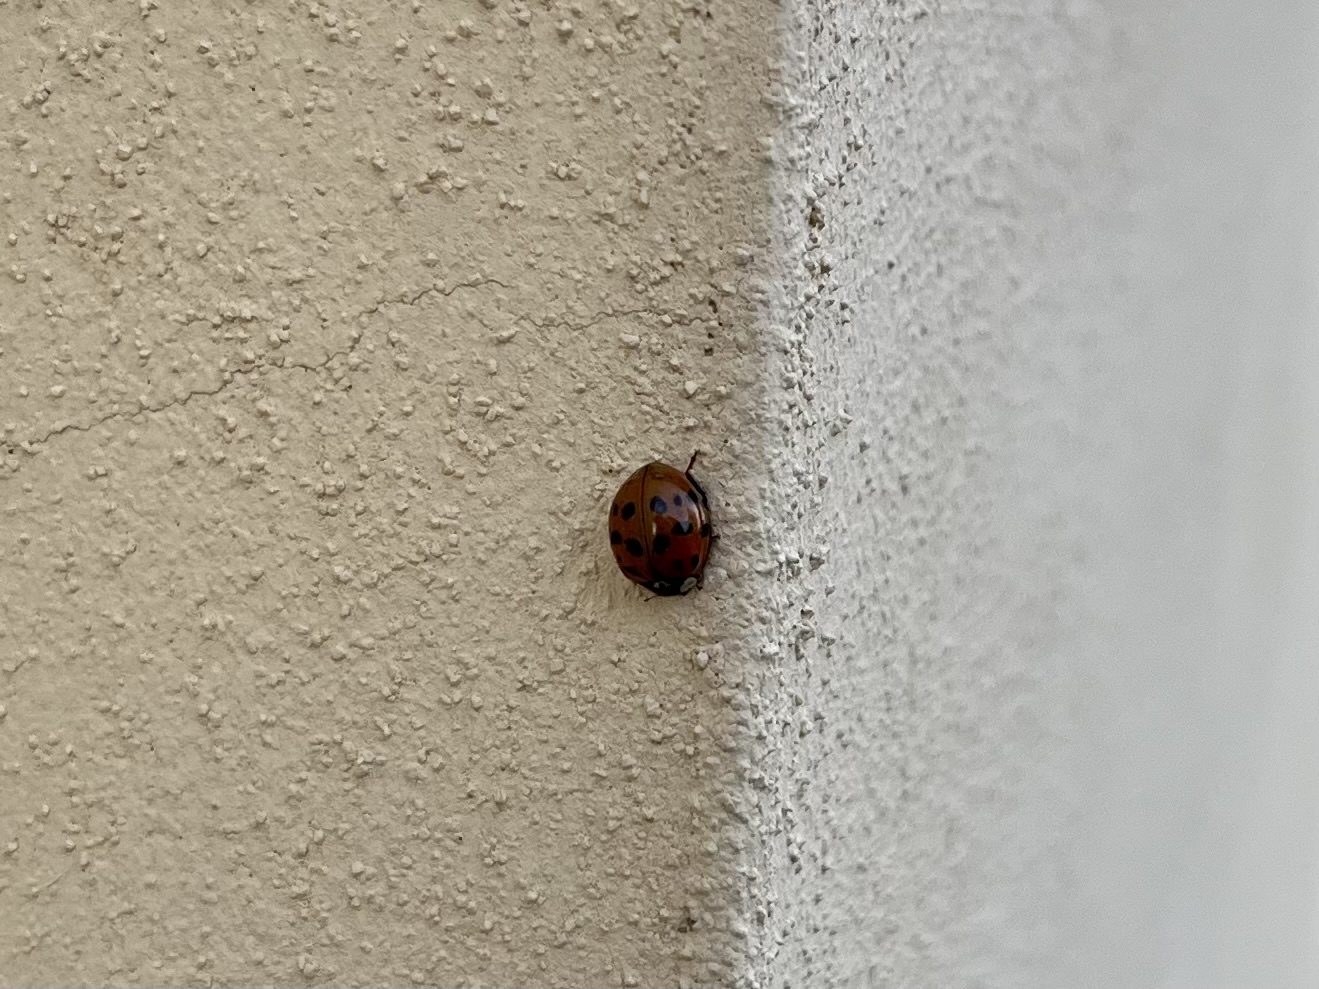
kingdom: Animalia
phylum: Arthropoda
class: Insecta
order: Coleoptera
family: Coccinellidae
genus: Harmonia
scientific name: Harmonia axyridis
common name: Harlequin ladybird
